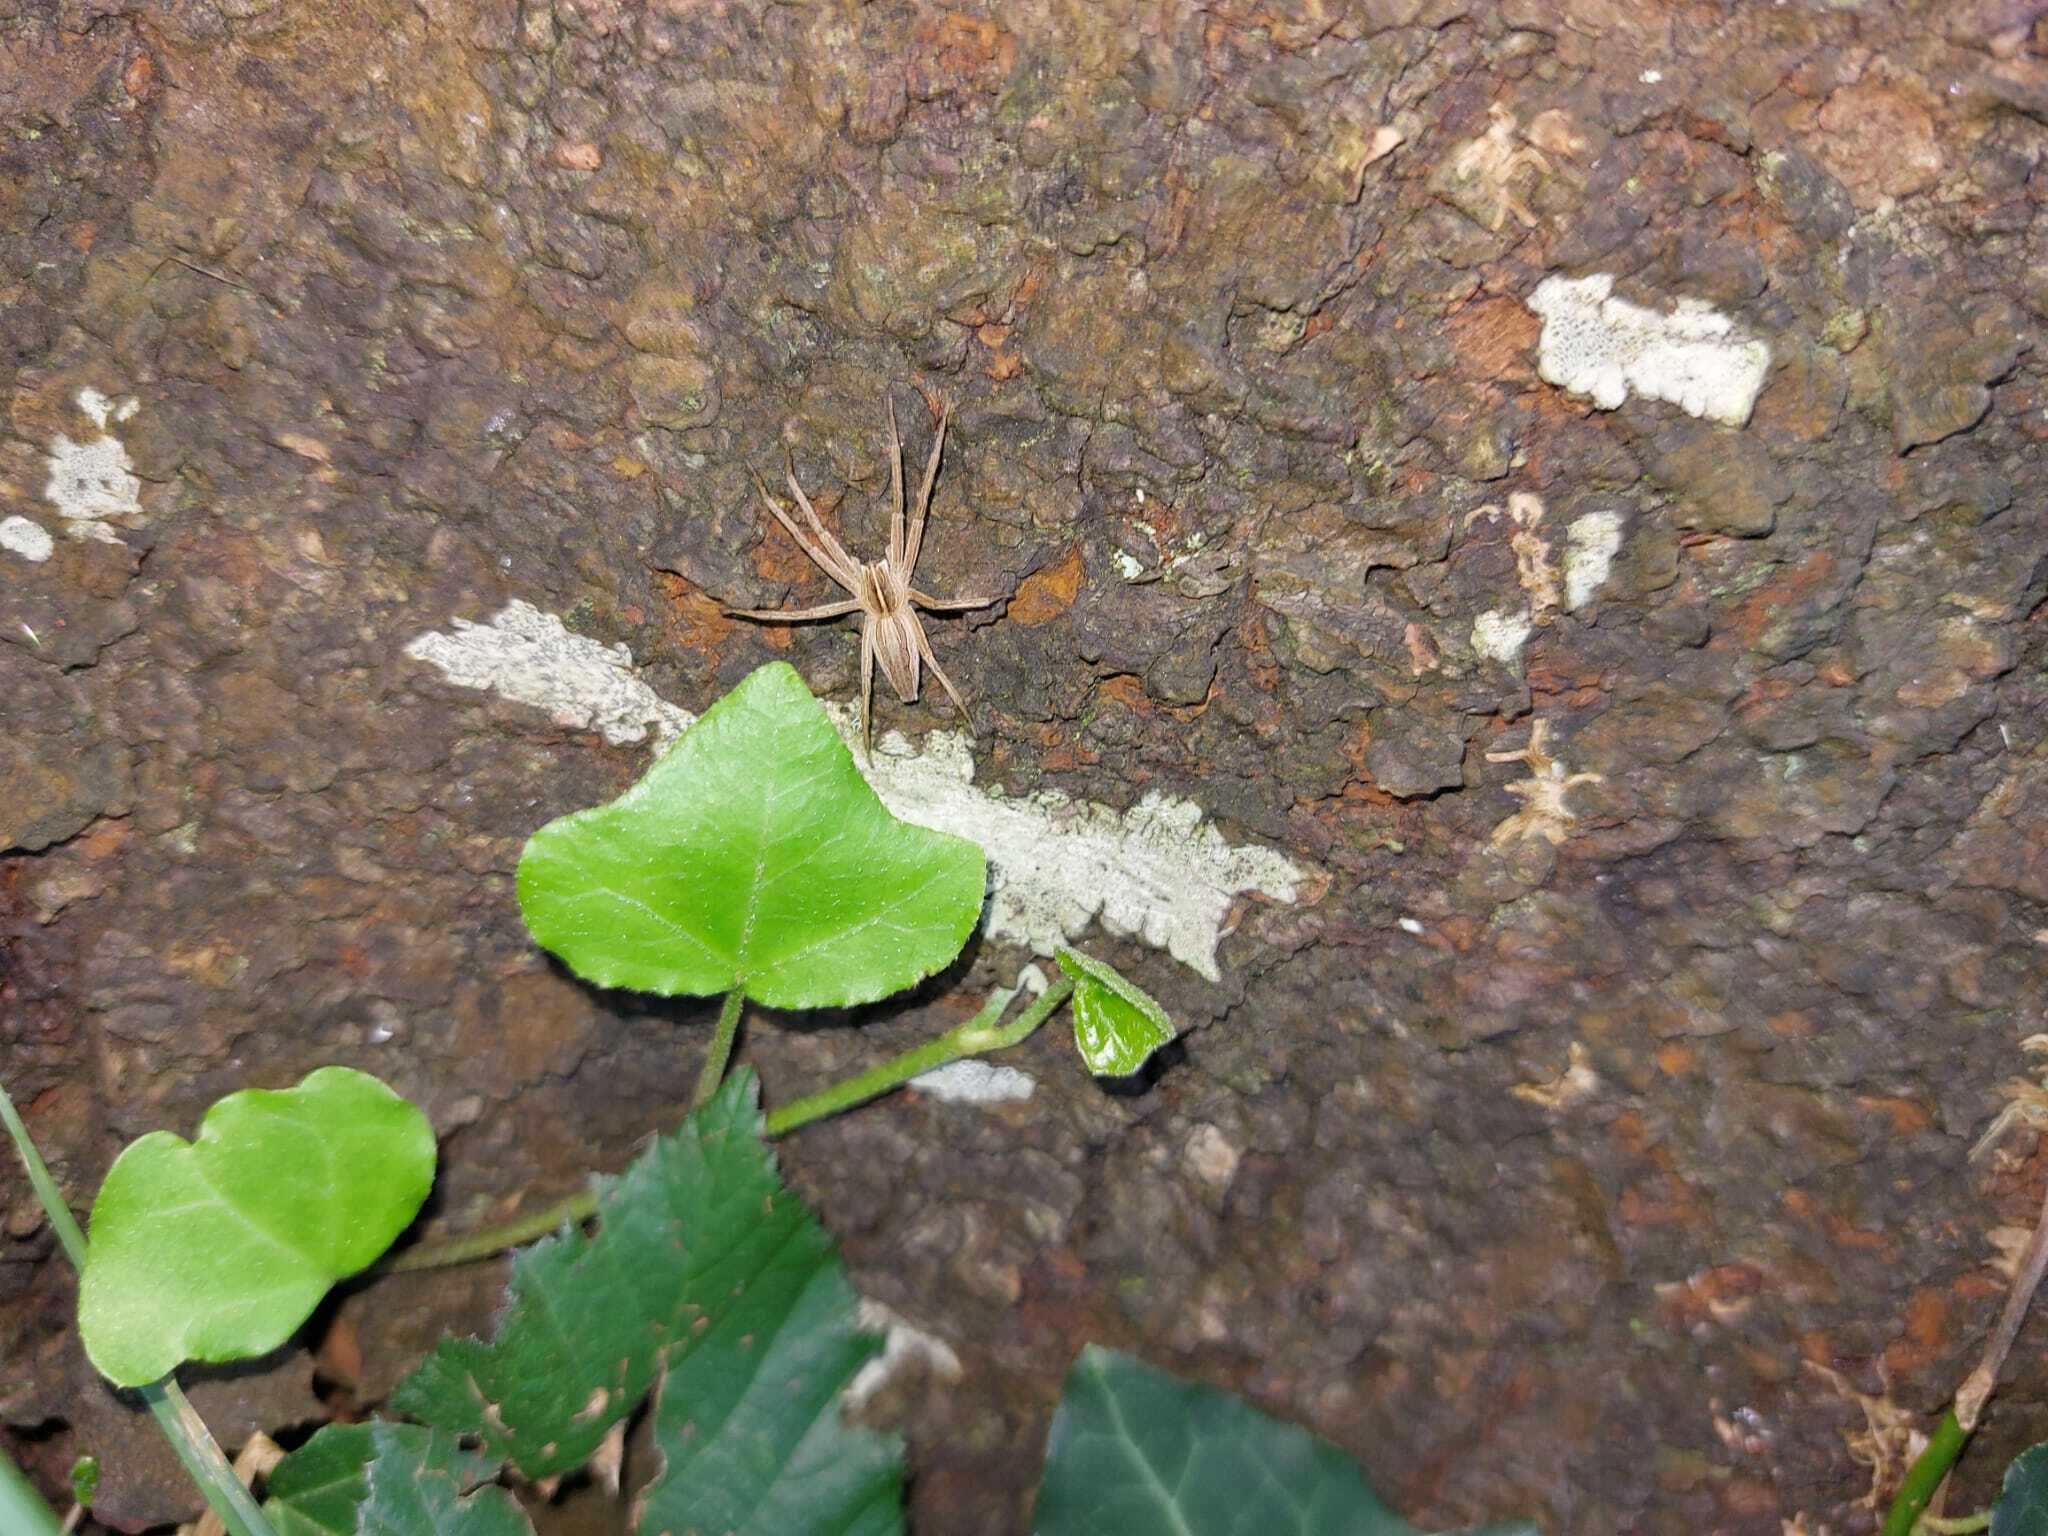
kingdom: Animalia
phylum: Arthropoda
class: Arachnida
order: Araneae
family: Pisauridae
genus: Pisaura
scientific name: Pisaura mirabilis
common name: Tent spider
